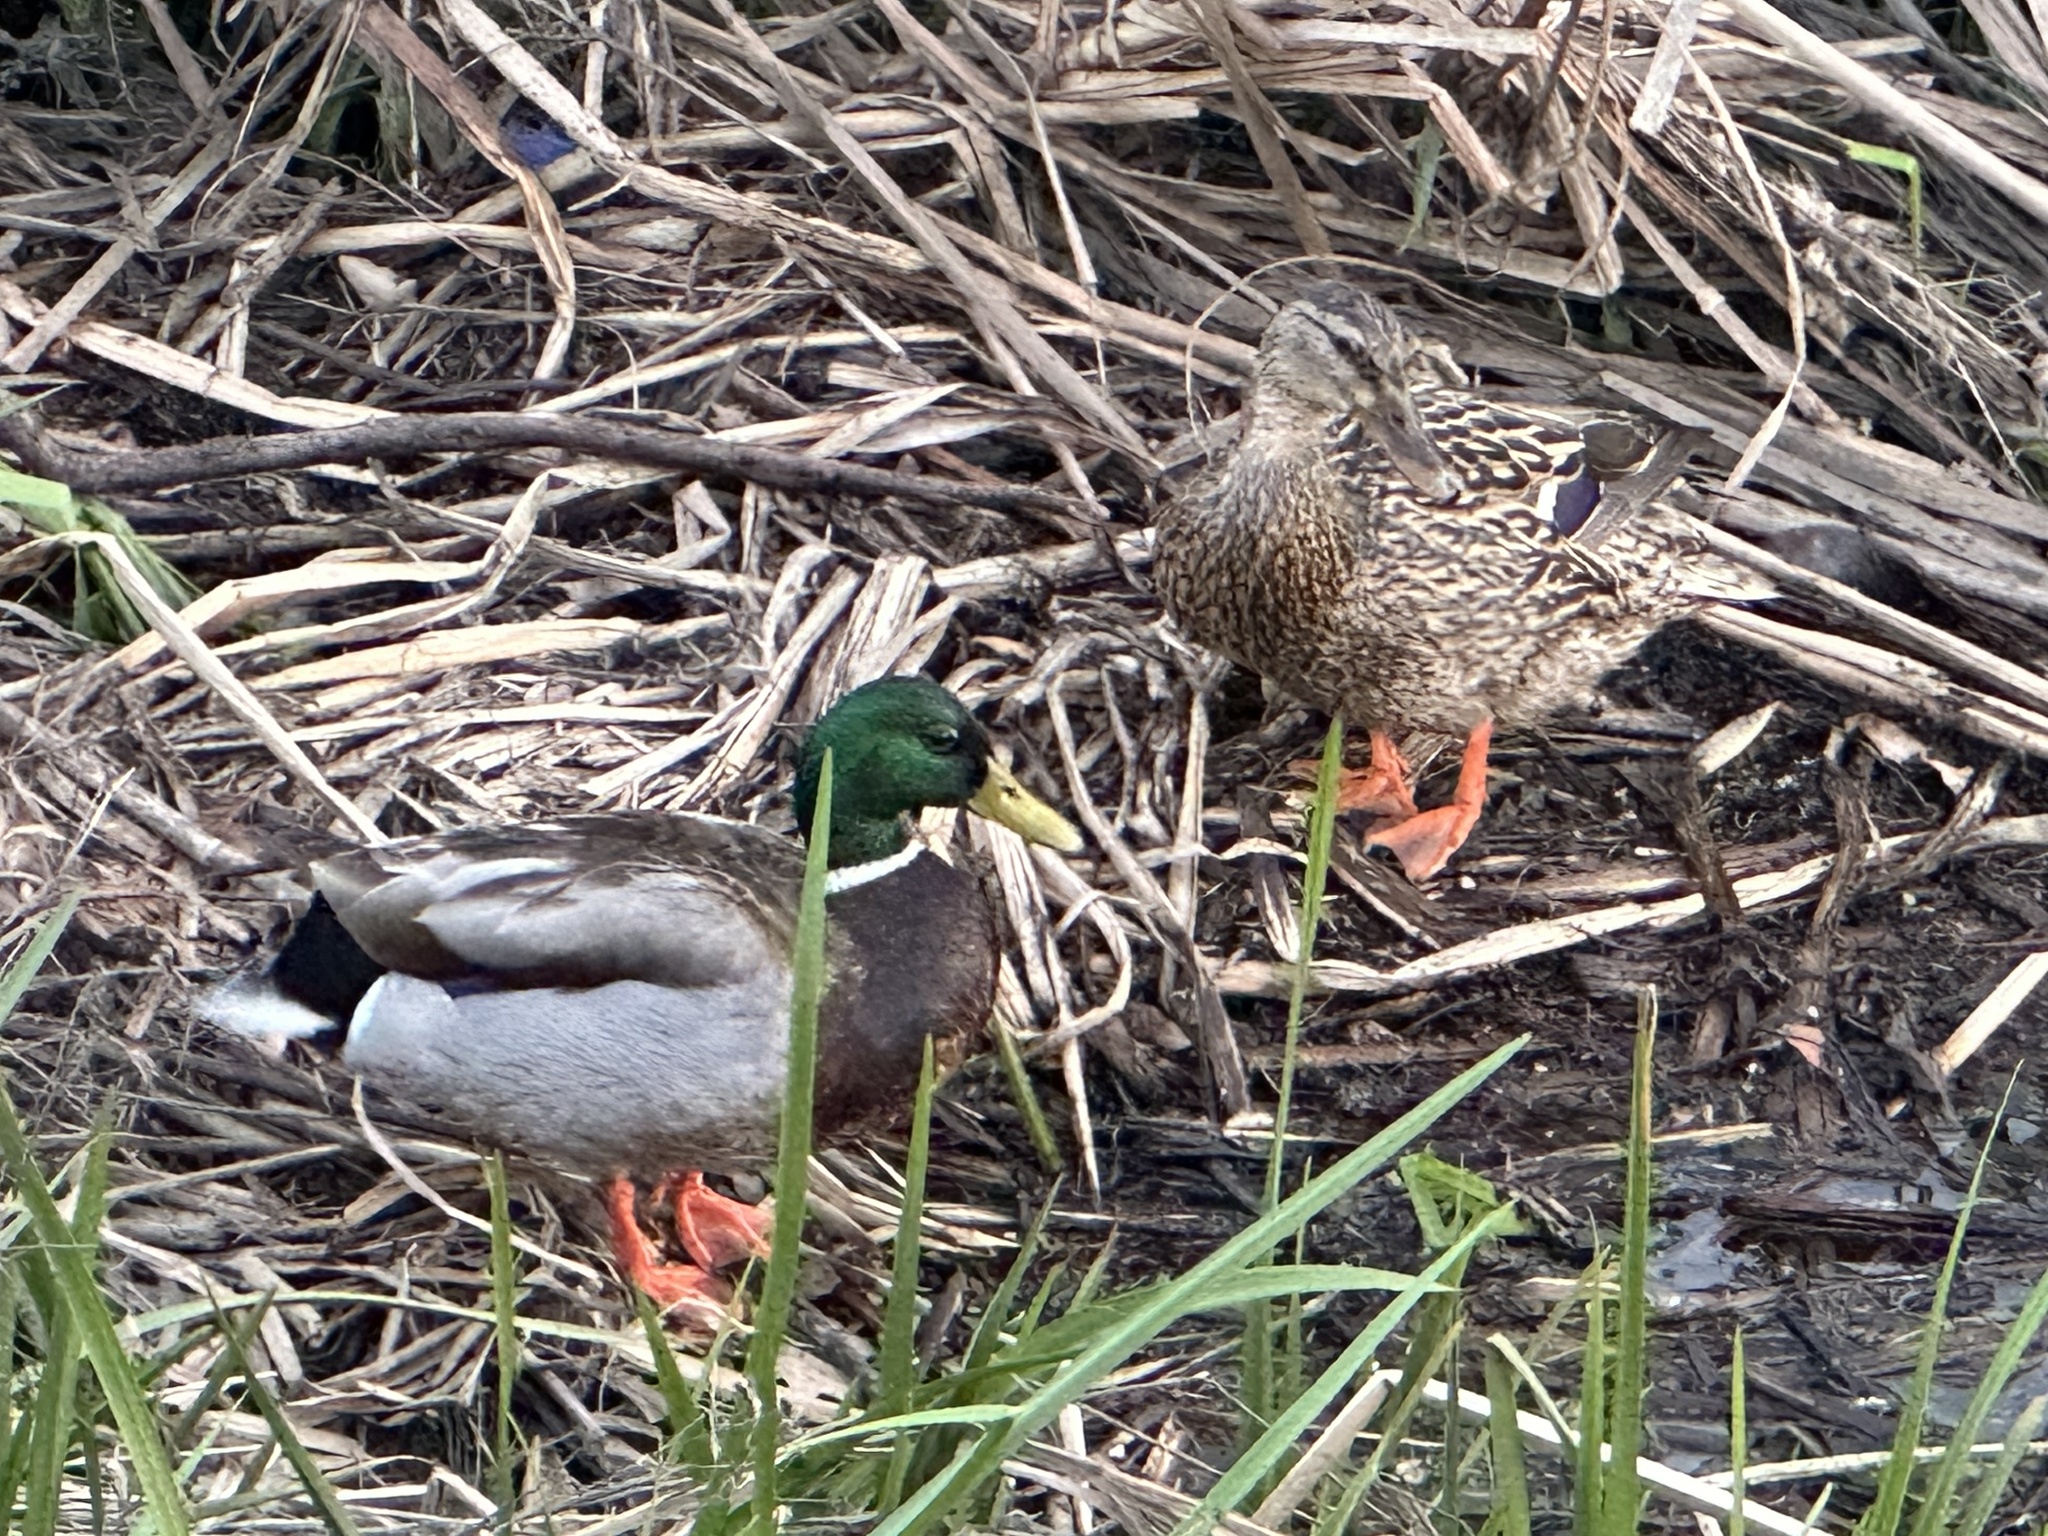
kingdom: Animalia
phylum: Chordata
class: Aves
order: Anseriformes
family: Anatidae
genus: Anas
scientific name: Anas platyrhynchos
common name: Mallard
